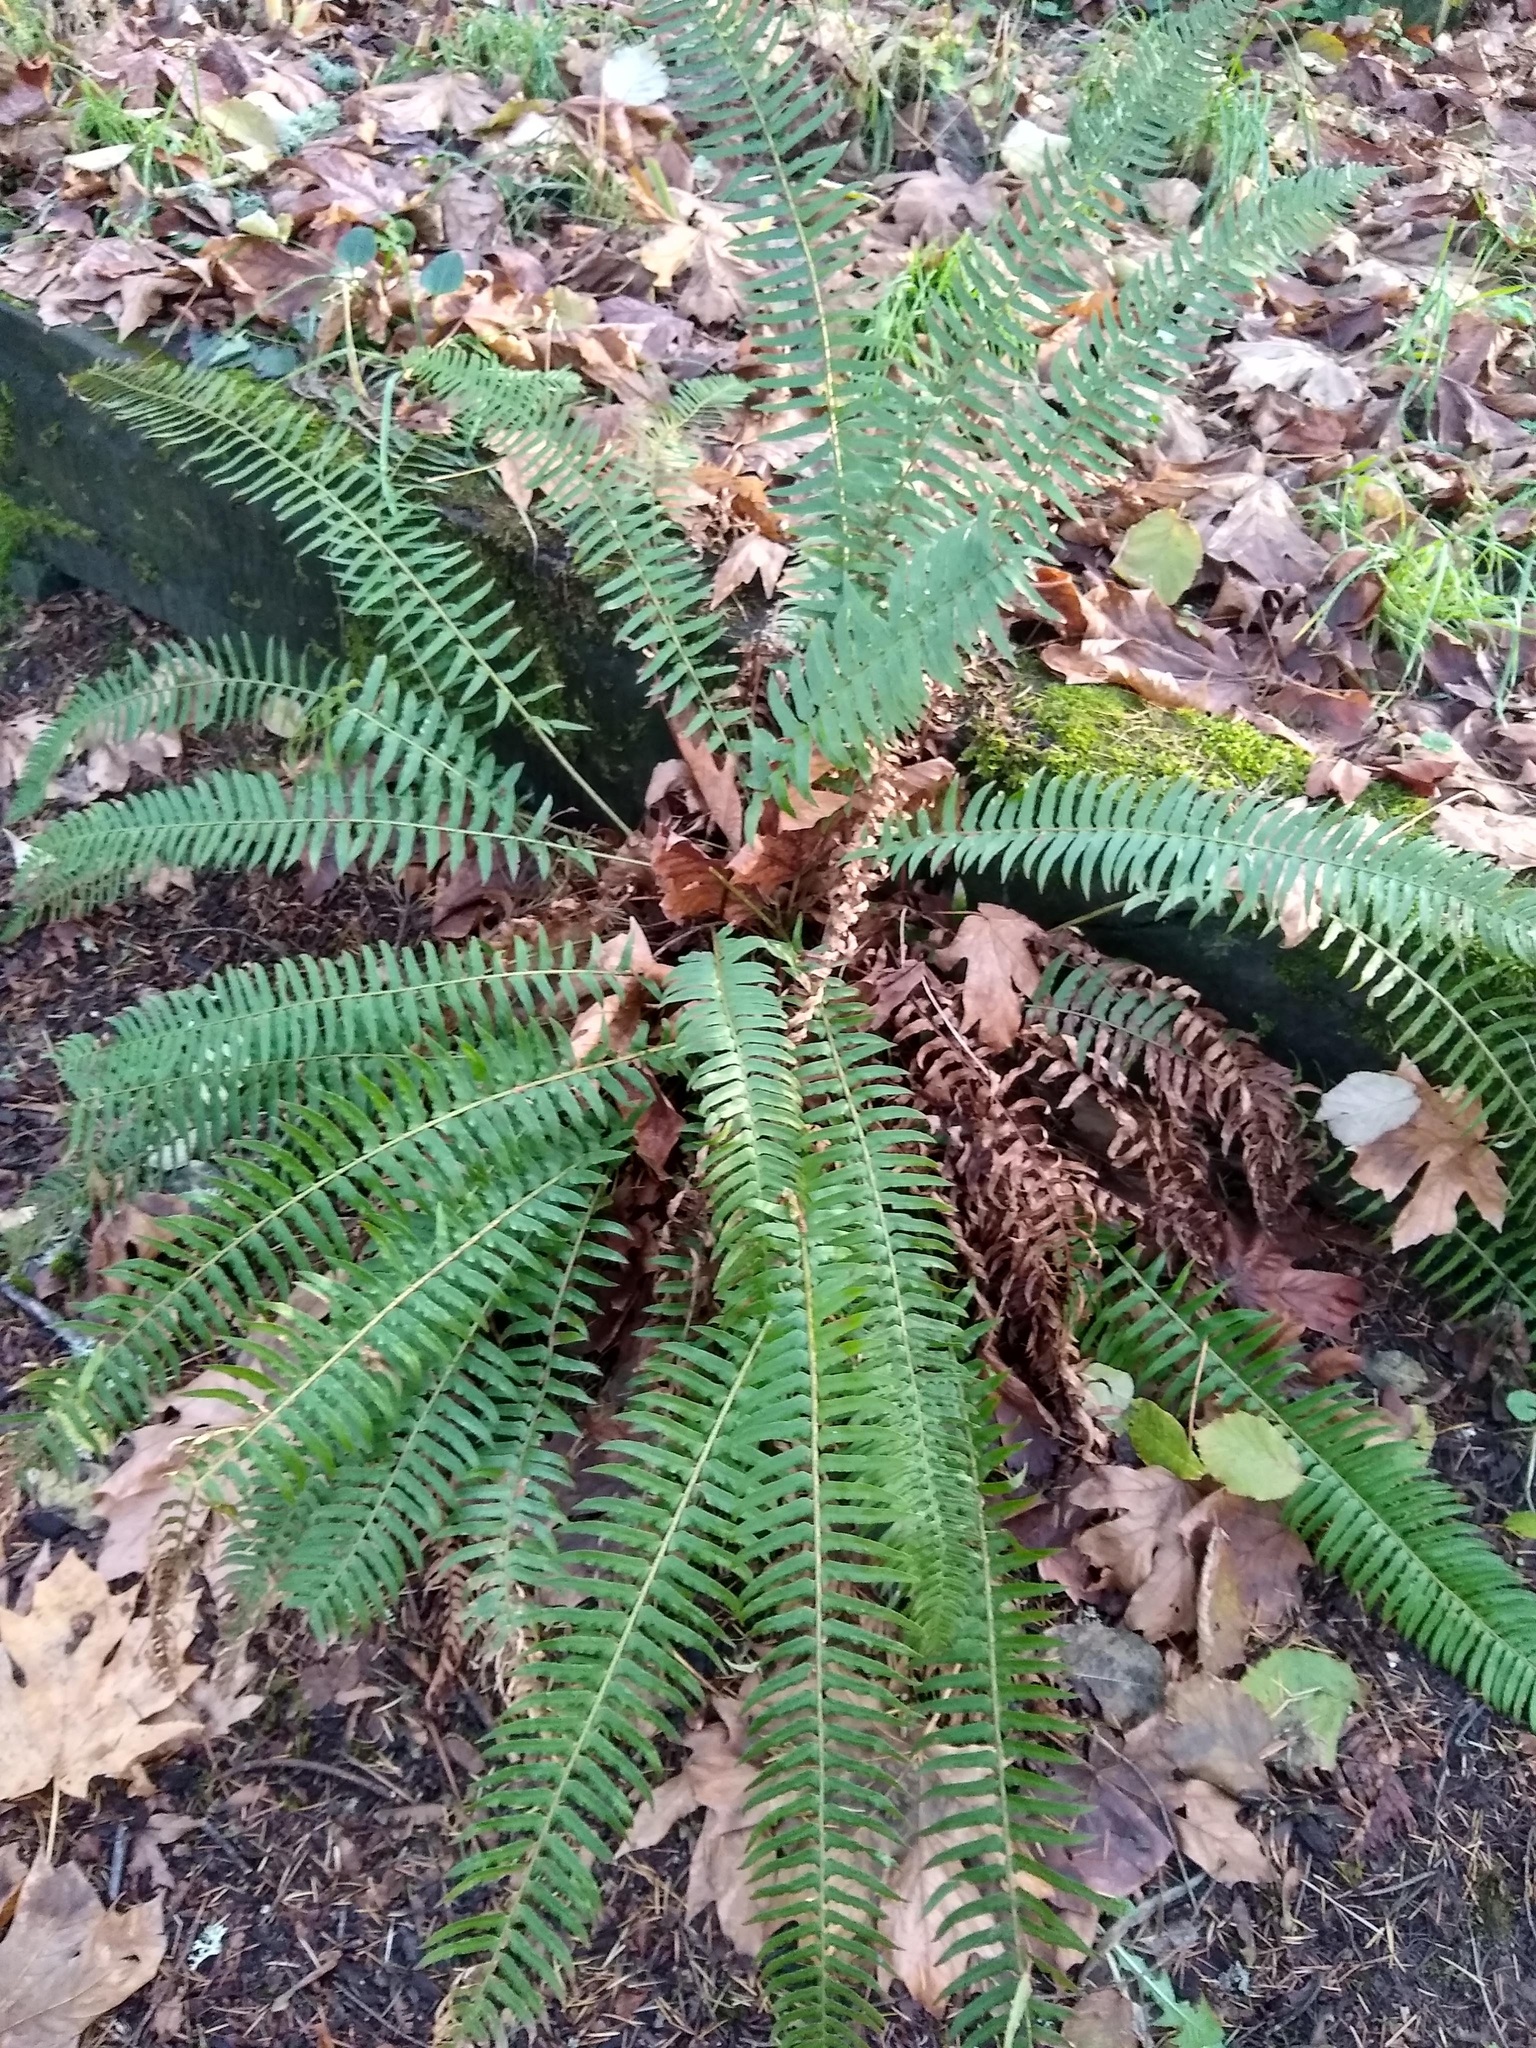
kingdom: Plantae
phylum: Tracheophyta
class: Polypodiopsida
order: Polypodiales
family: Dryopteridaceae
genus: Polystichum
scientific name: Polystichum munitum
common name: Western sword-fern
